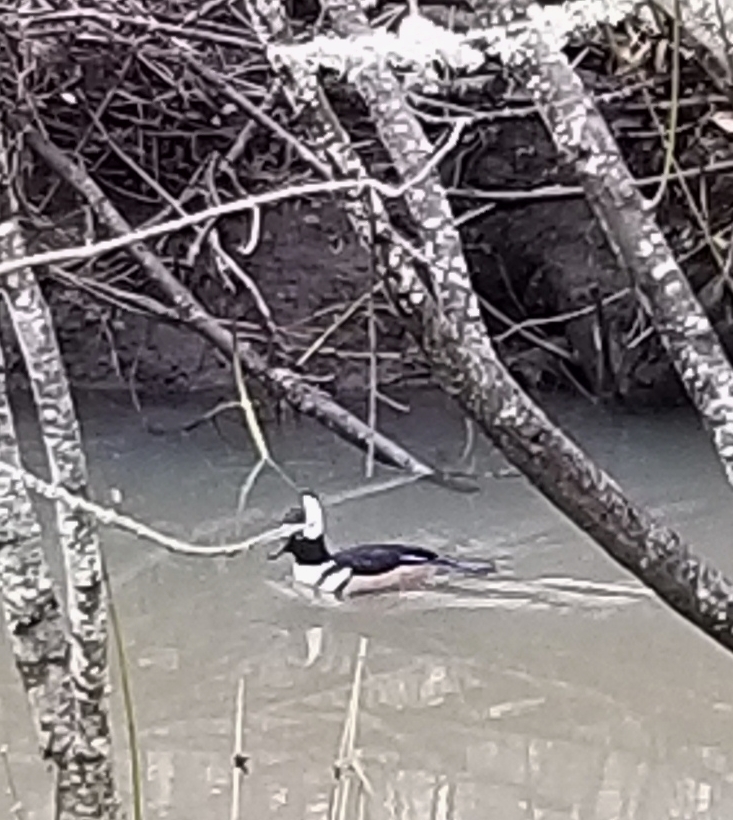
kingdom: Animalia
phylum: Chordata
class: Aves
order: Anseriformes
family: Anatidae
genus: Lophodytes
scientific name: Lophodytes cucullatus
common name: Hooded merganser
